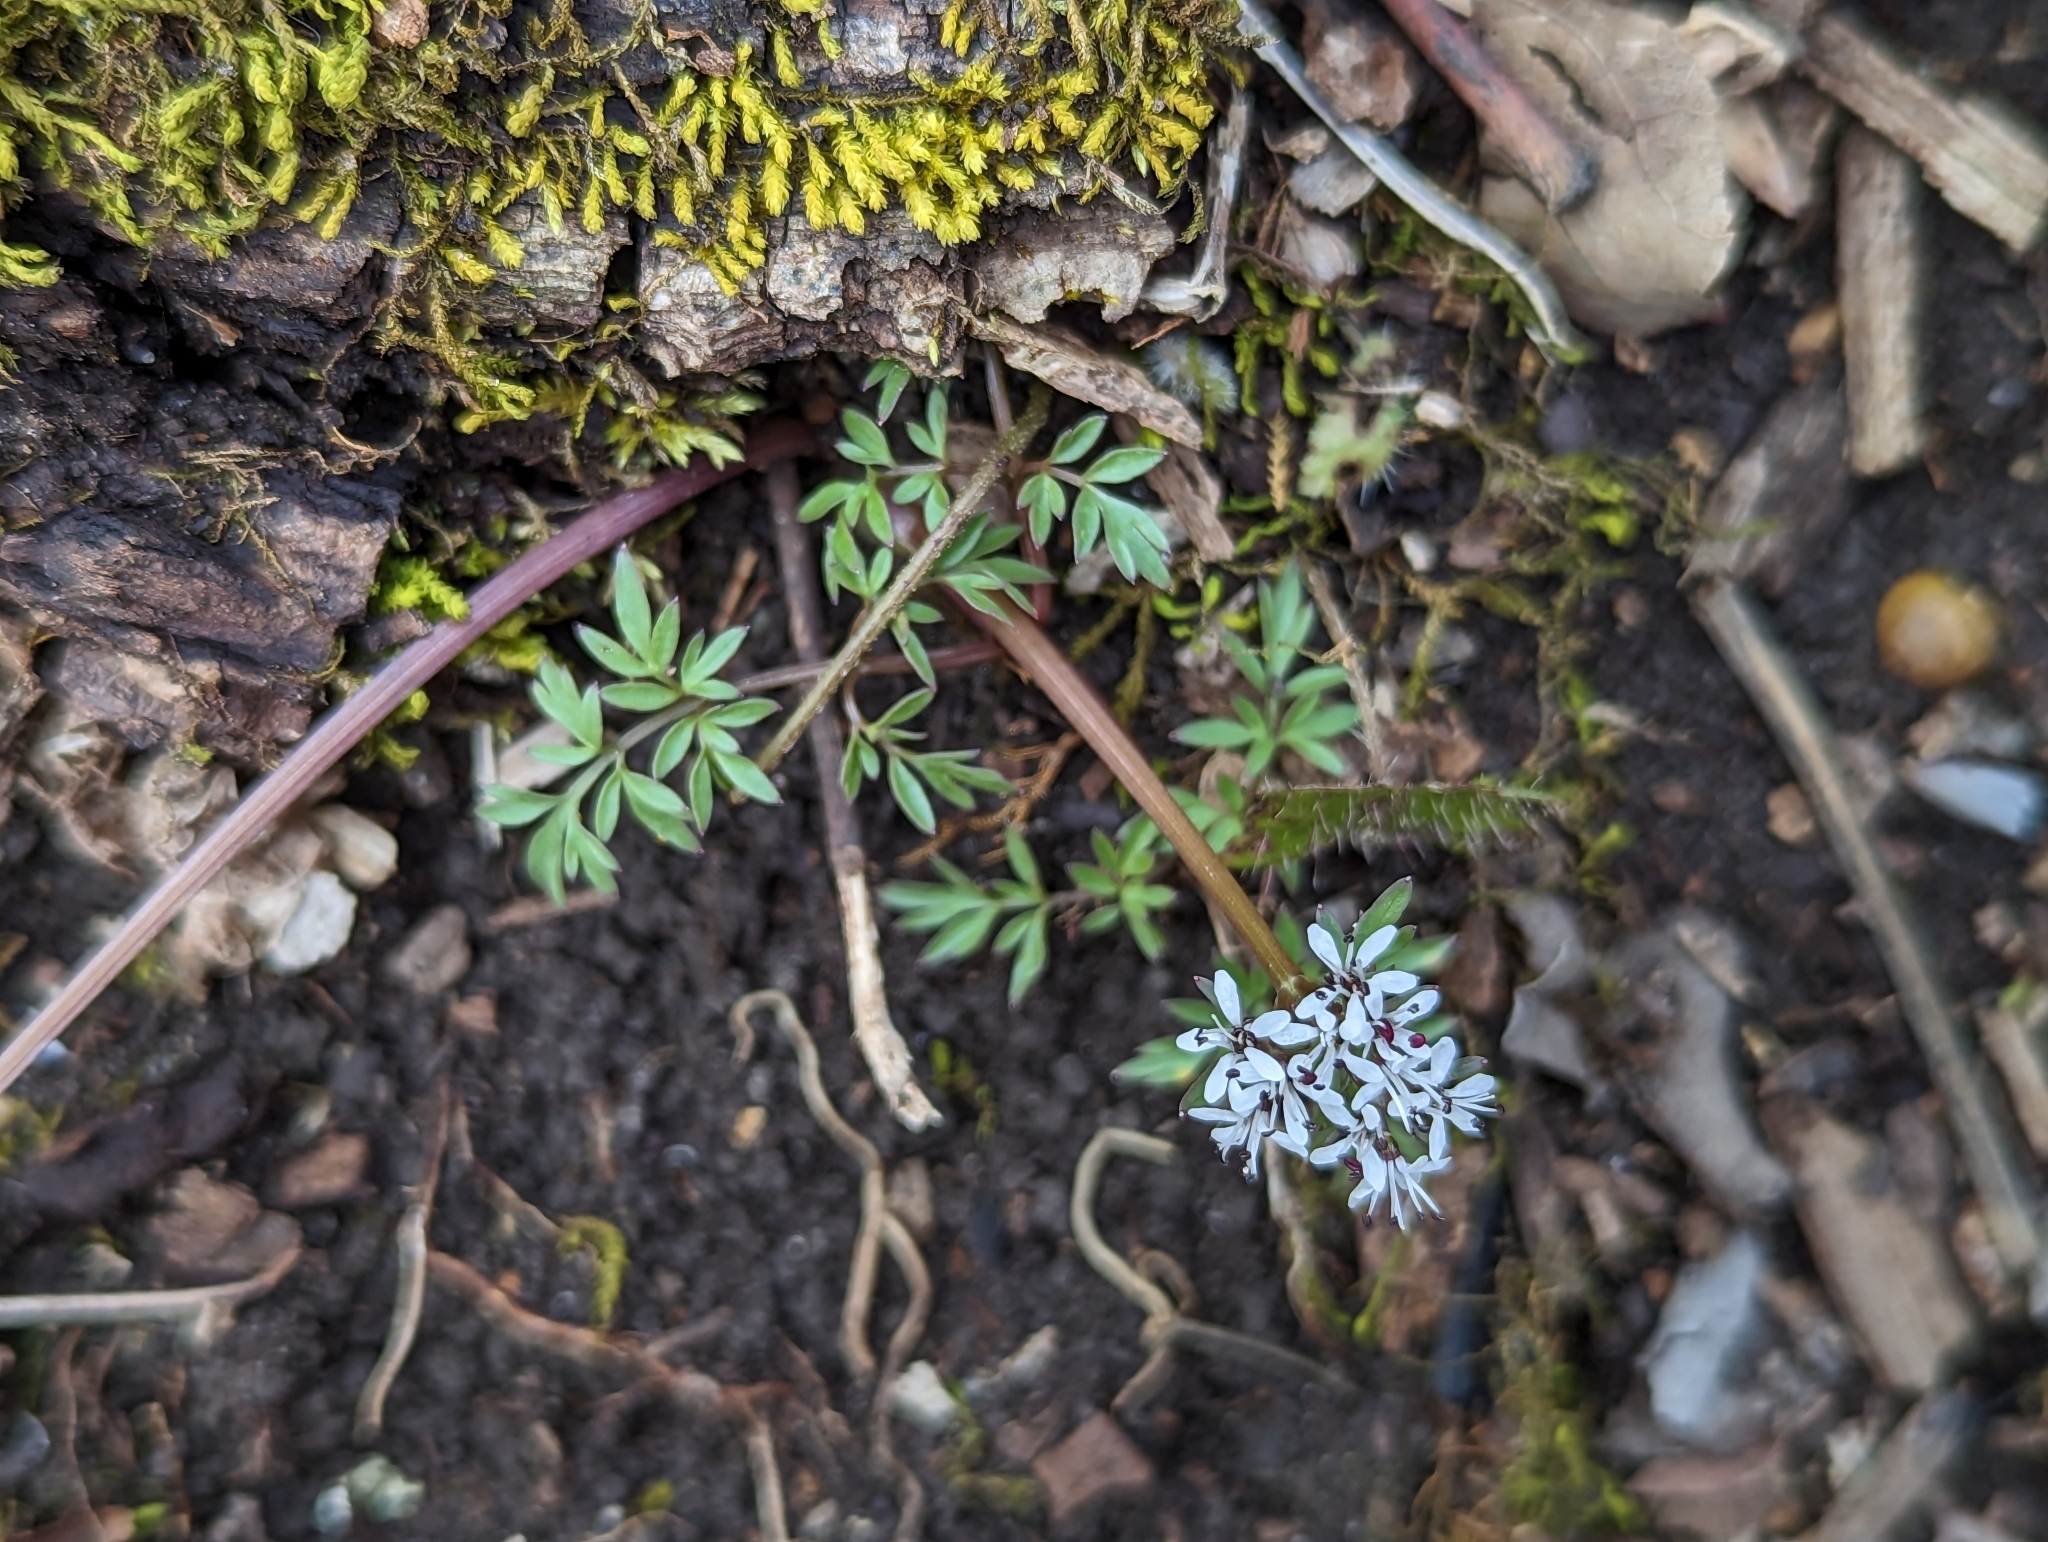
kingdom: Plantae
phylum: Tracheophyta
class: Magnoliopsida
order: Apiales
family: Apiaceae
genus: Erigenia
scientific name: Erigenia bulbosa
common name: Pepper-and-salt
